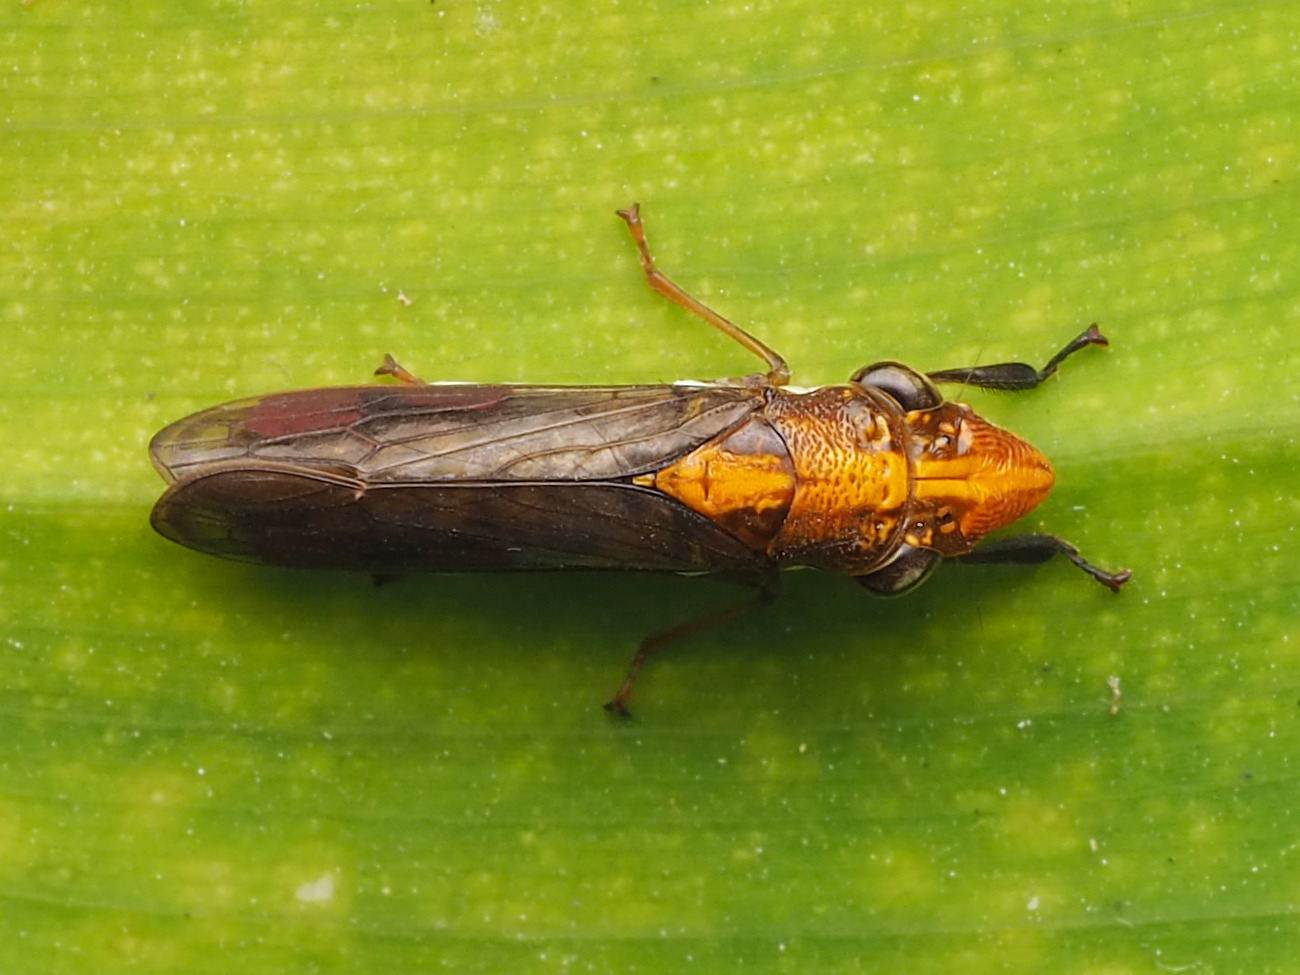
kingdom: Animalia
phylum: Arthropoda
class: Insecta
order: Hemiptera
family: Cicadellidae
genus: Phera
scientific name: Phera obtusifrons
